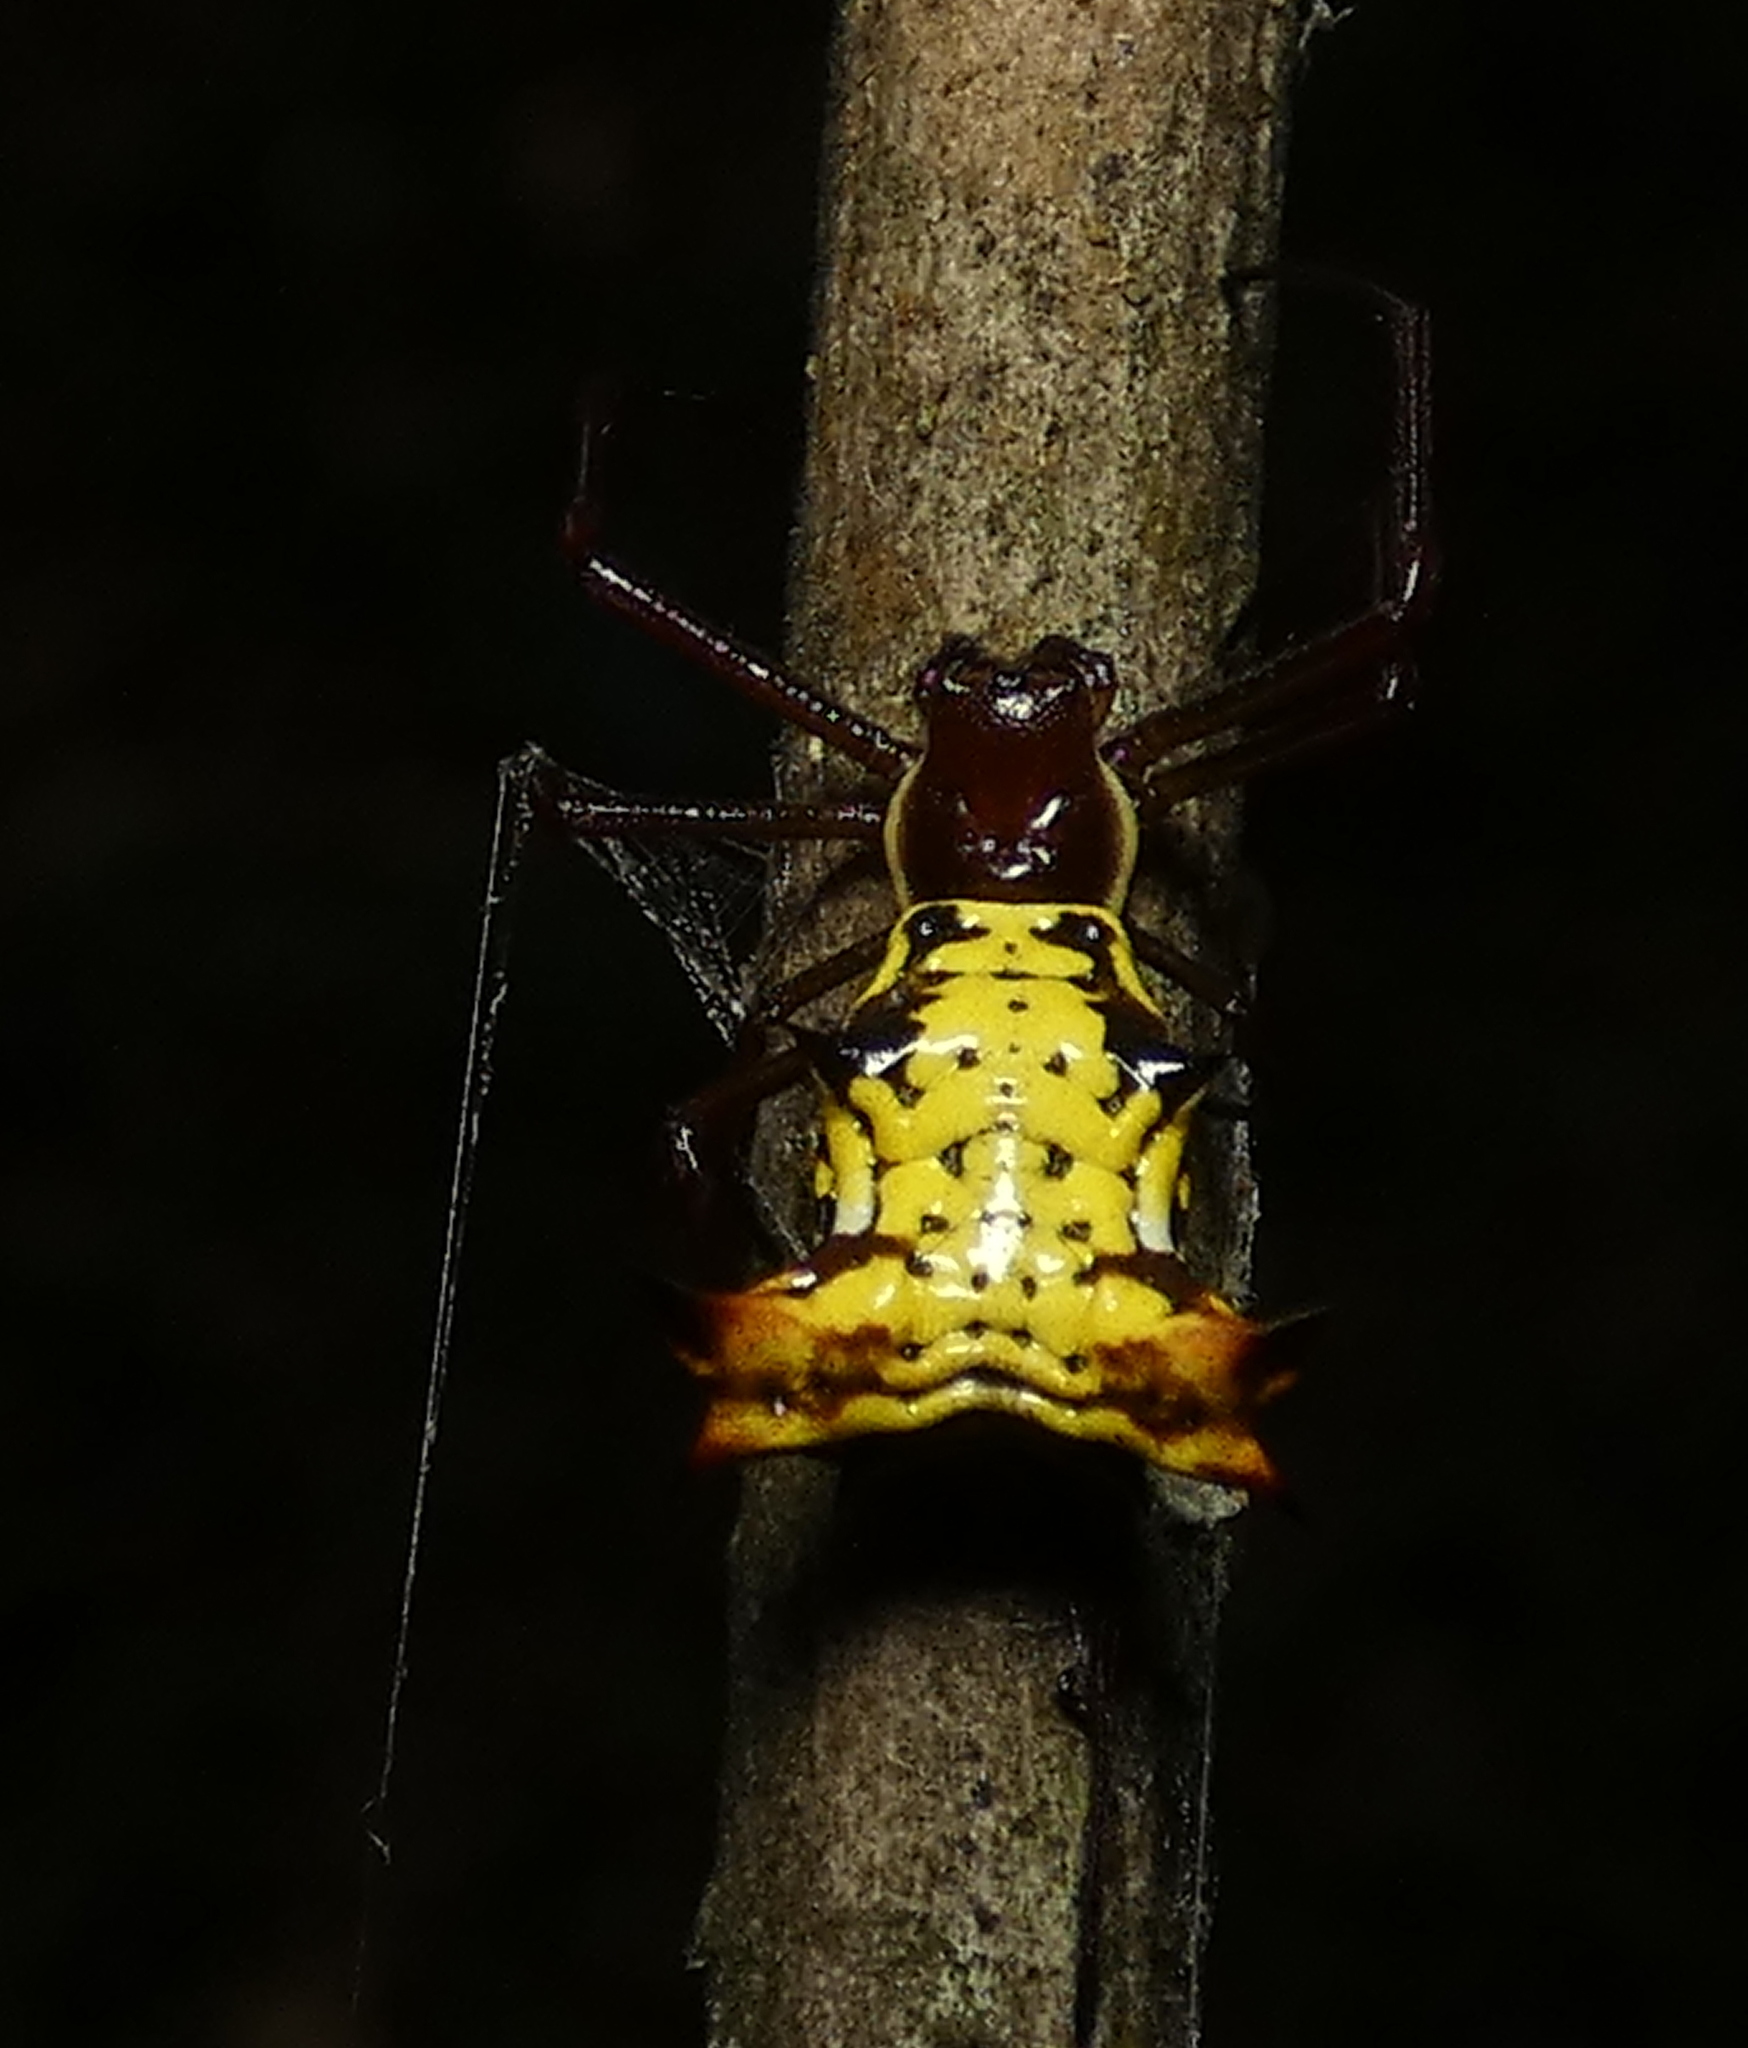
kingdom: Animalia
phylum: Arthropoda
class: Arachnida
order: Araneae
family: Araneidae
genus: Micrathena
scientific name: Micrathena fissispina
